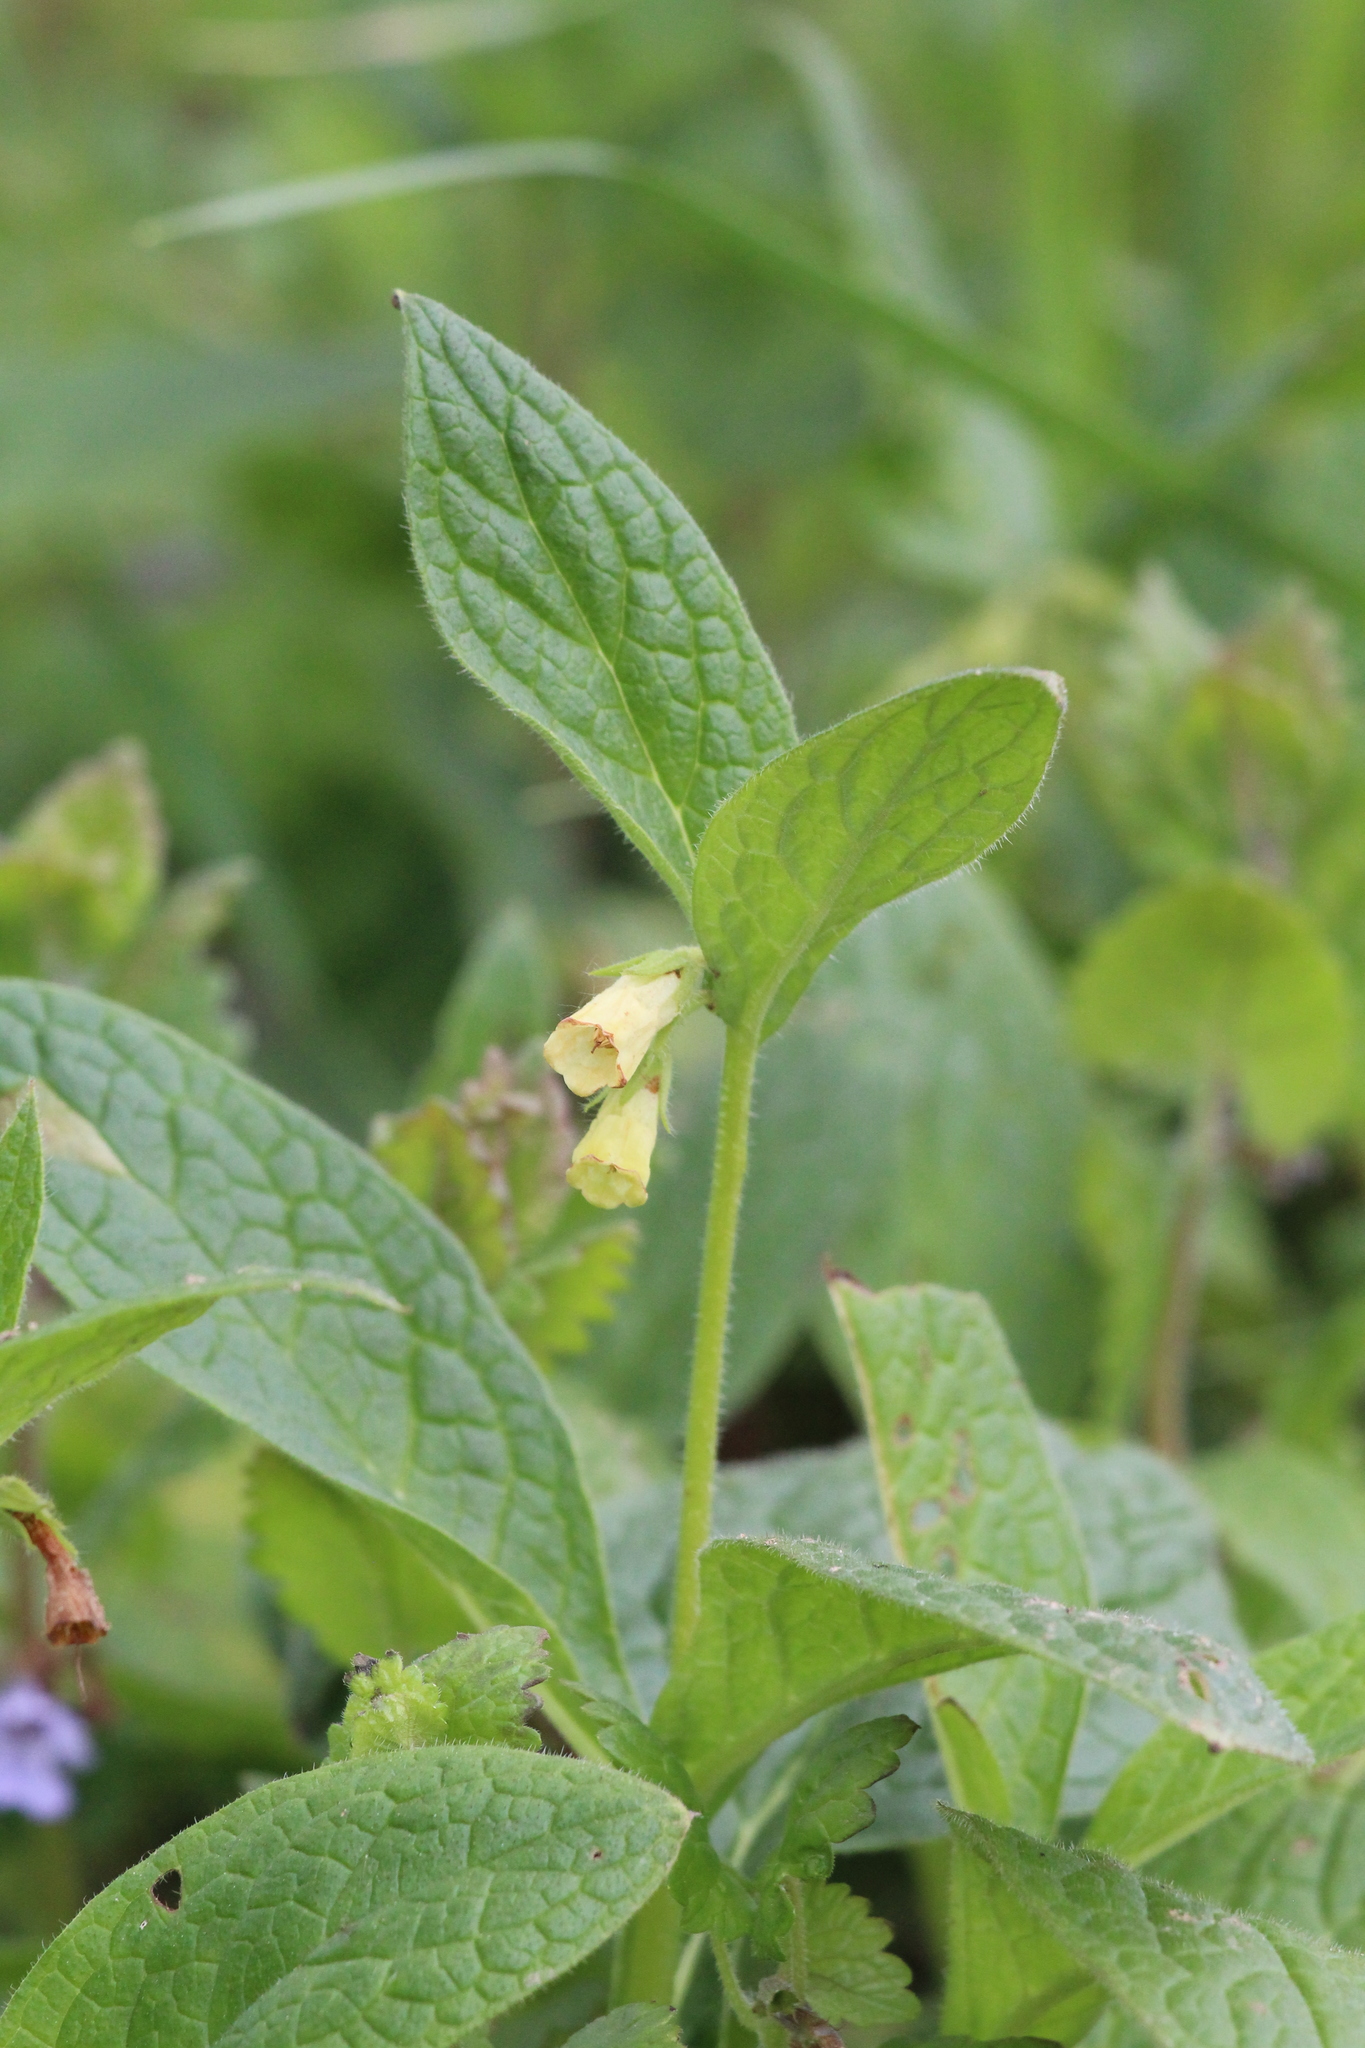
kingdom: Plantae
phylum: Tracheophyta
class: Magnoliopsida
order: Boraginales
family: Boraginaceae
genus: Symphytum
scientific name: Symphytum tuberosum
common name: Tuberous comfrey
